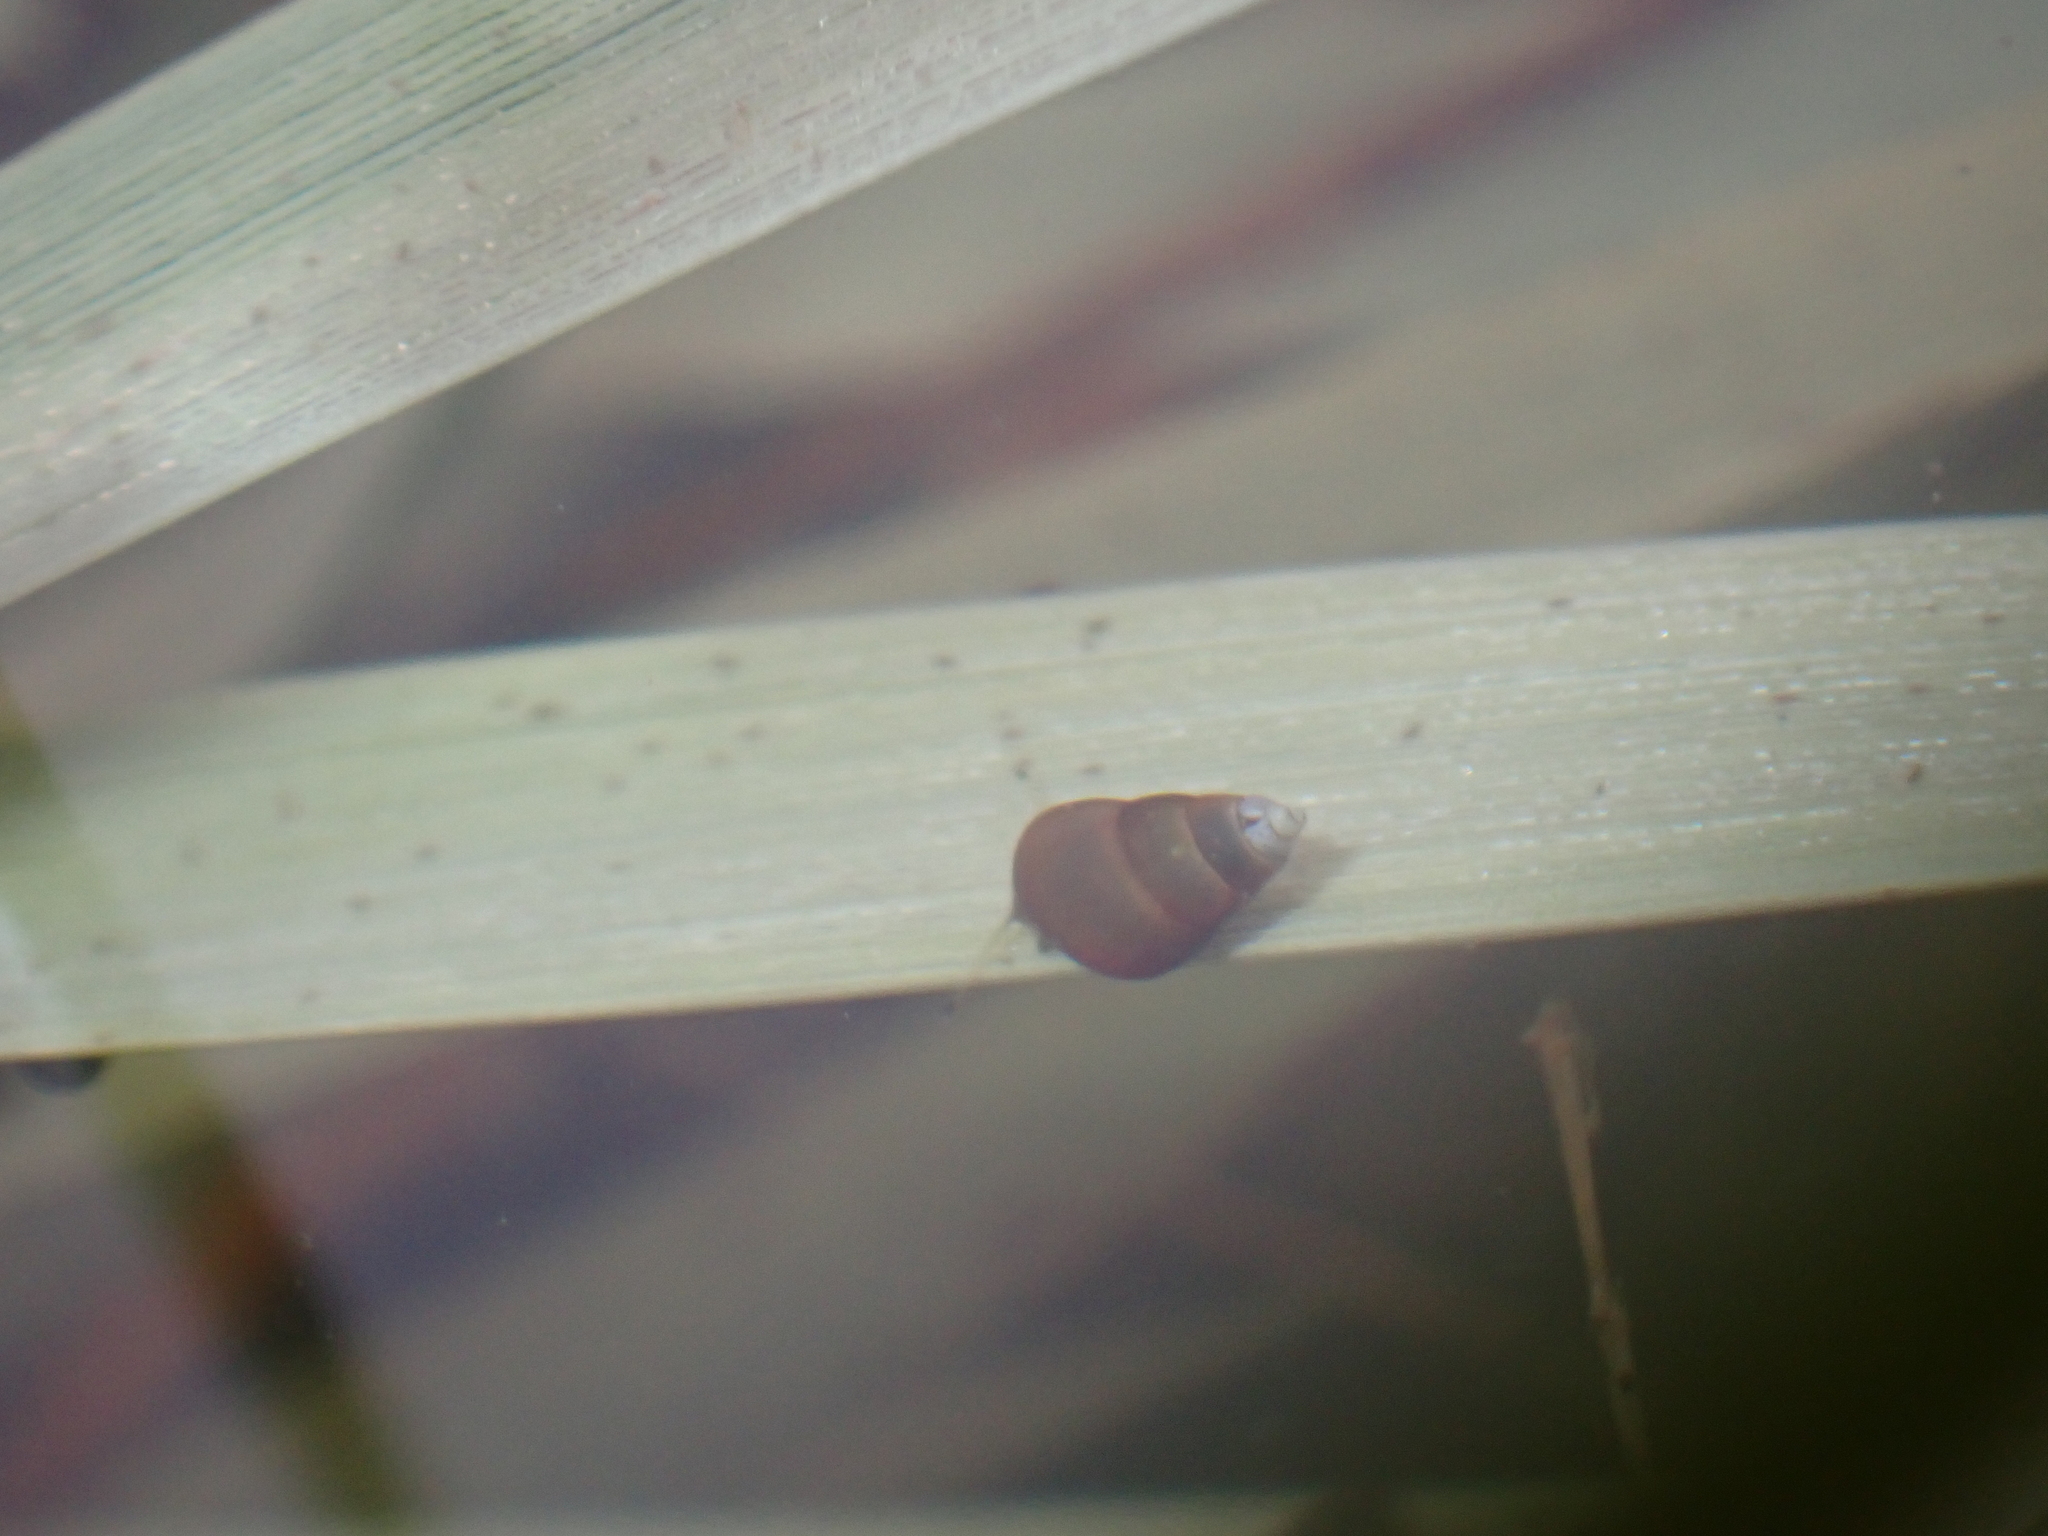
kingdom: Animalia
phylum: Mollusca
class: Gastropoda
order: Littorinimorpha
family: Hydrobiidae
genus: Peringia
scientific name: Peringia ulvae
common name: Laver spire shell
